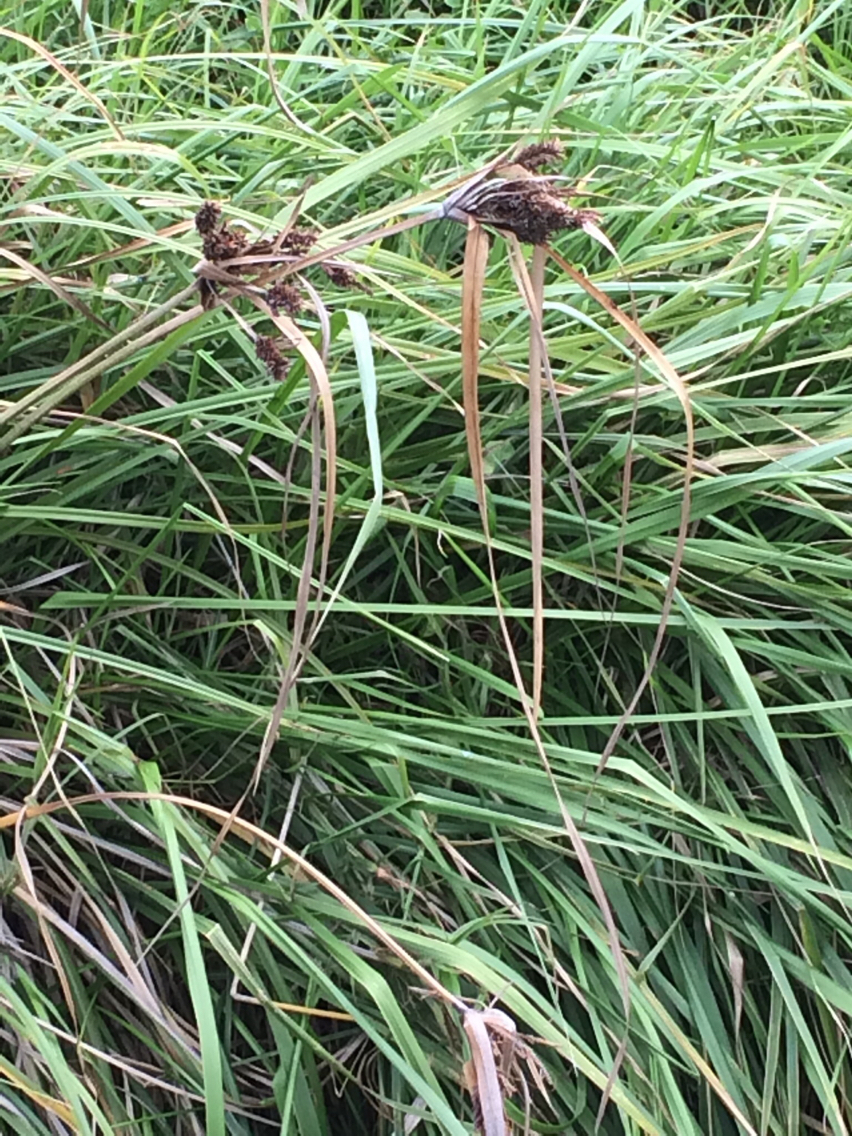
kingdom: Plantae
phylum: Tracheophyta
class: Liliopsida
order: Poales
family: Cyperaceae
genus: Cyperus
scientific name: Cyperus ustulatus
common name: Giant umbrella-sedge
